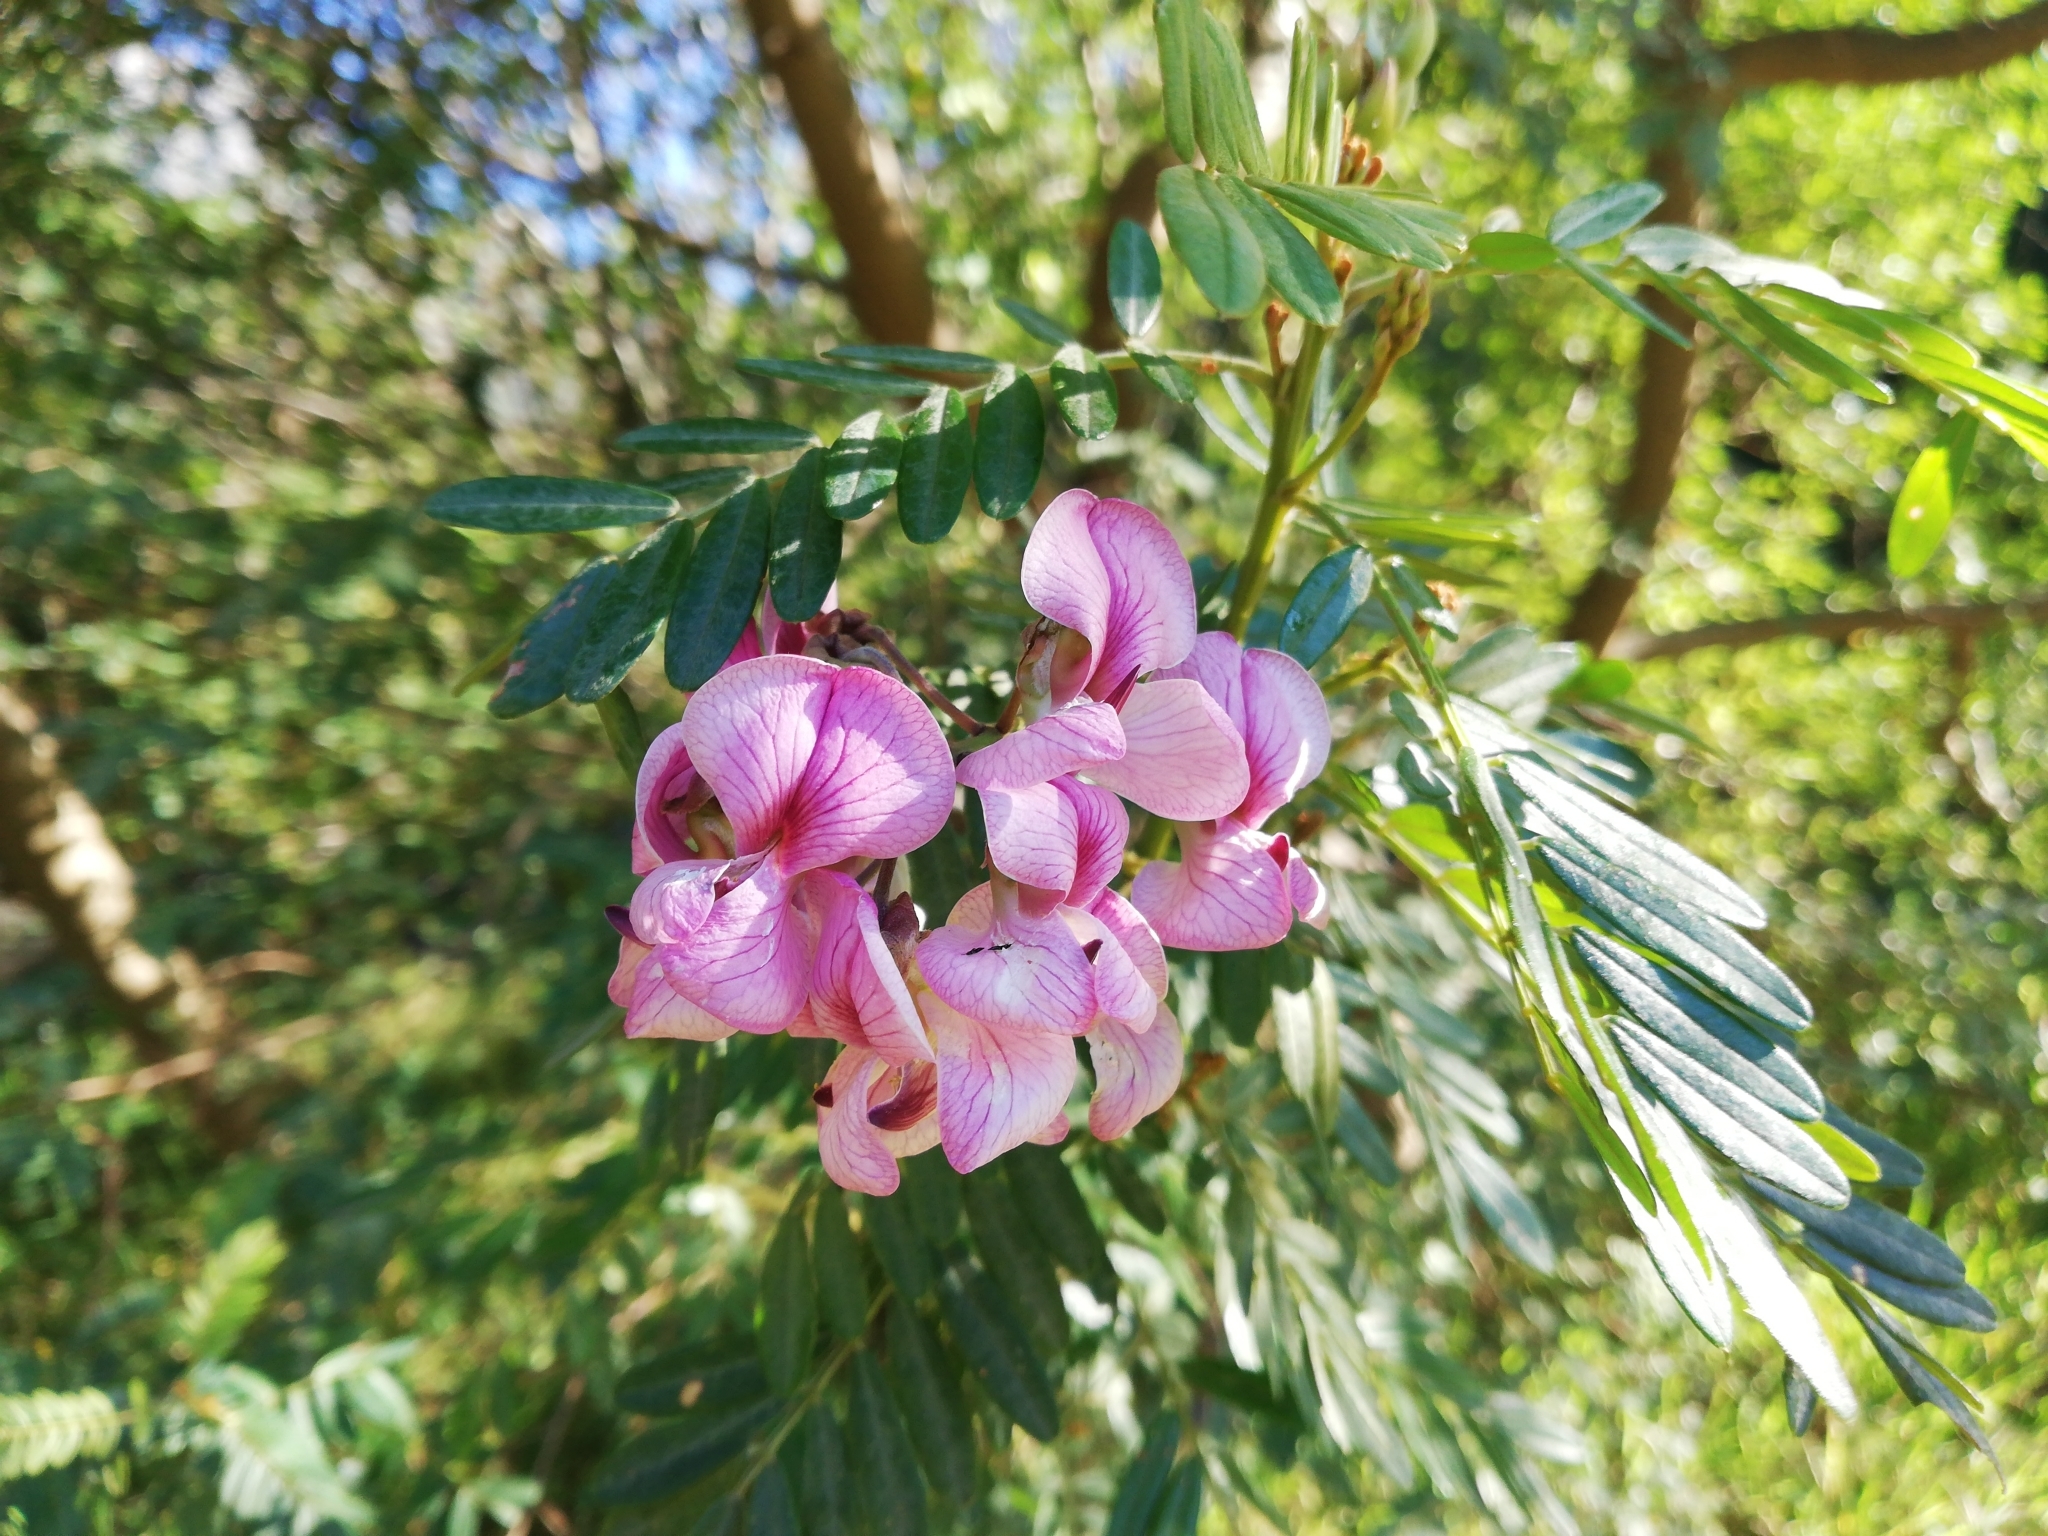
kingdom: Plantae
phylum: Tracheophyta
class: Magnoliopsida
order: Fabales
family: Fabaceae
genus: Virgilia
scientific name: Virgilia divaricata
